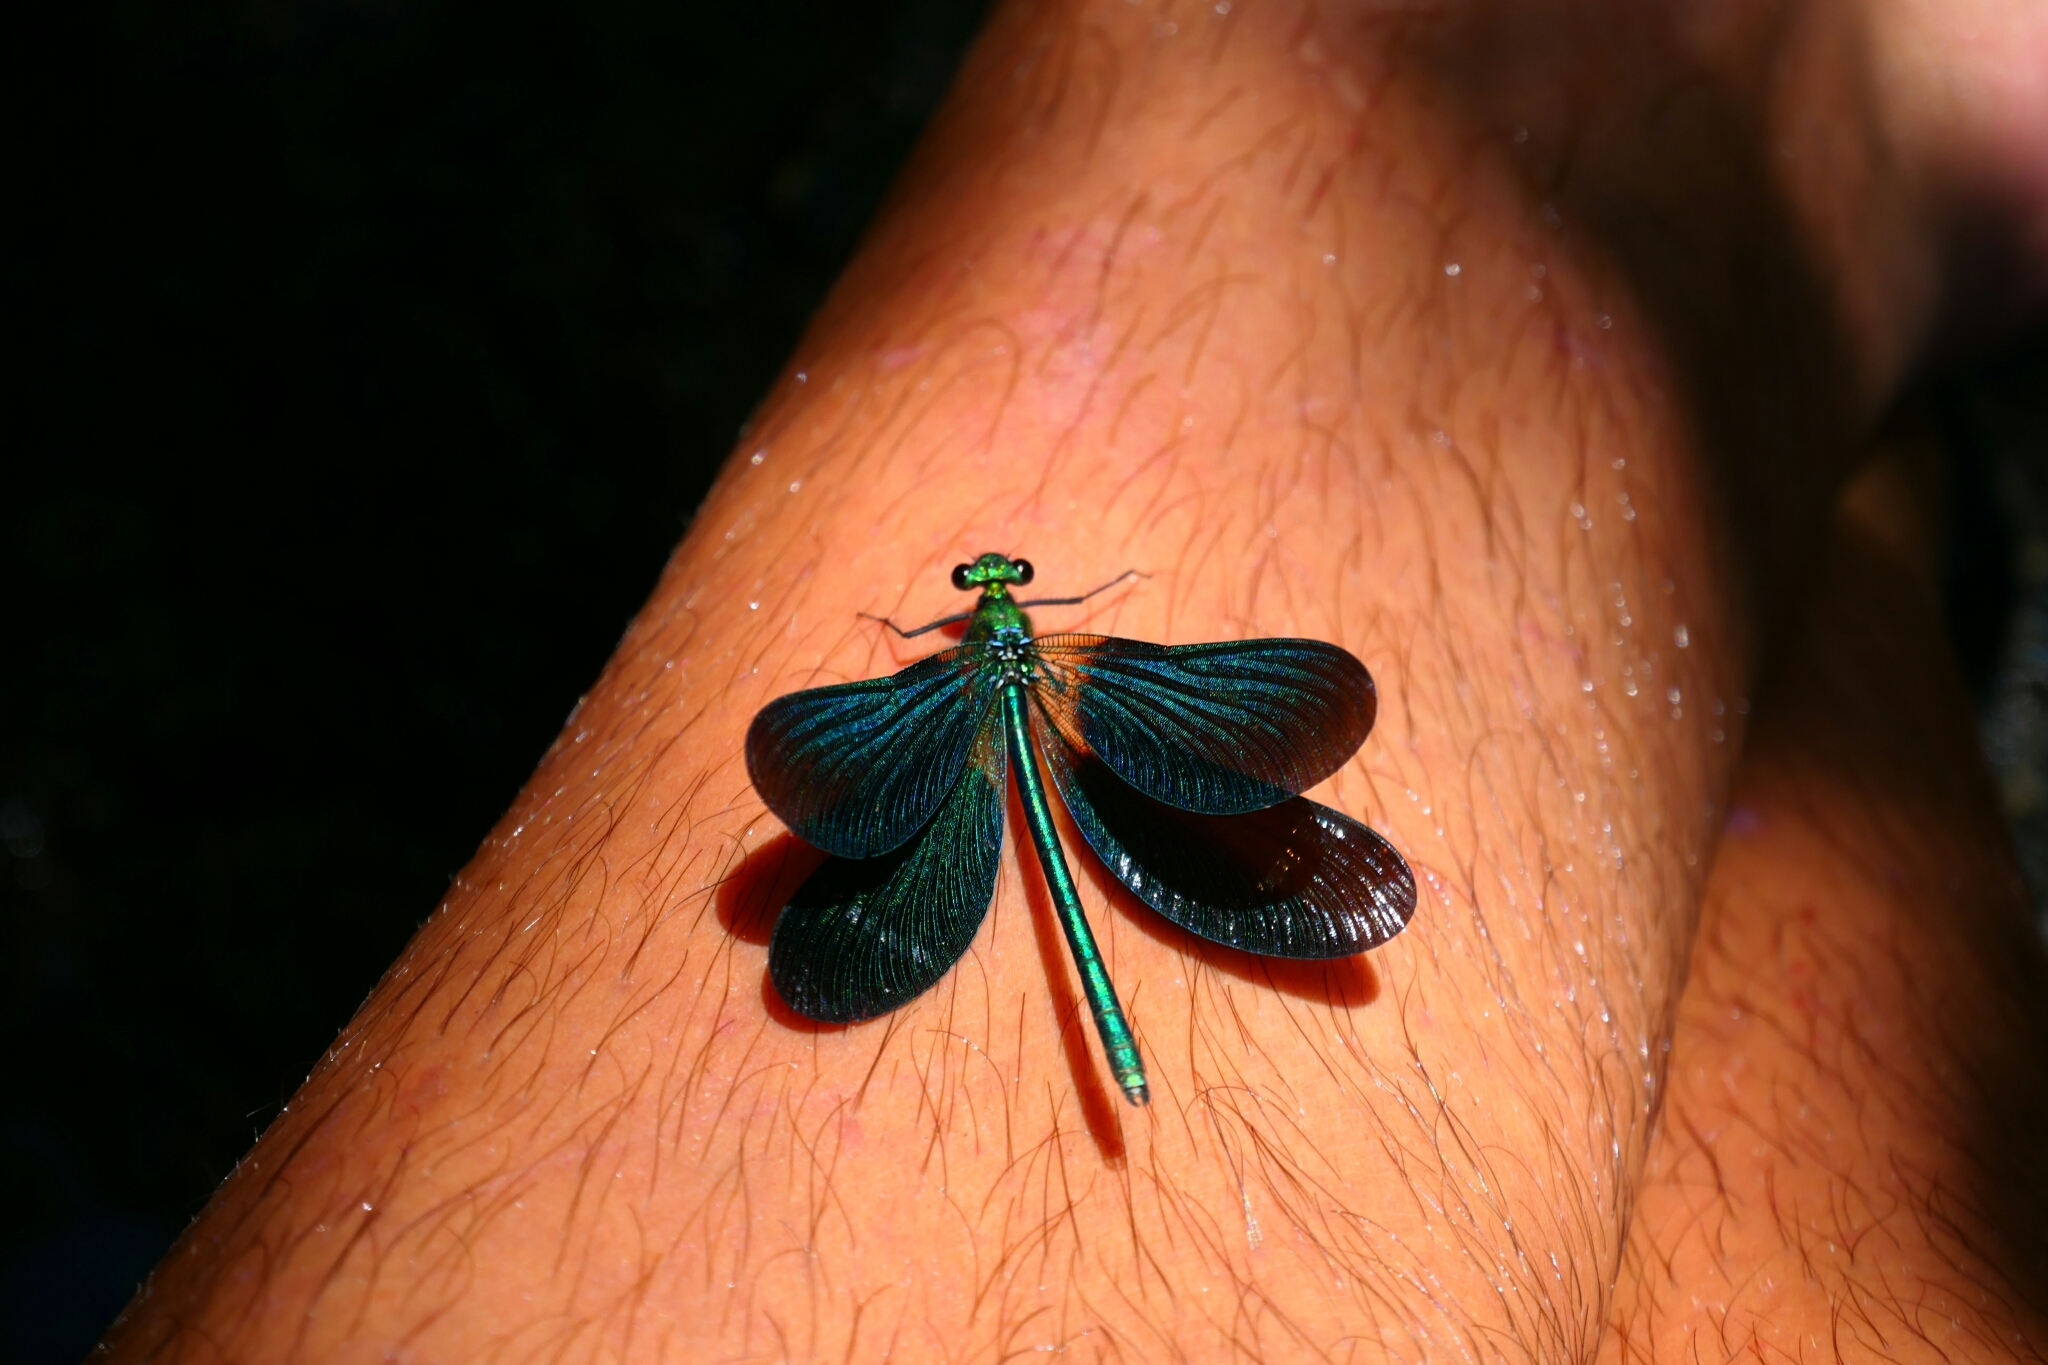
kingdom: Animalia
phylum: Arthropoda
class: Insecta
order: Odonata
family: Calopterygidae
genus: Calopteryx
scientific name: Calopteryx virgo
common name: Beautiful demoiselle
